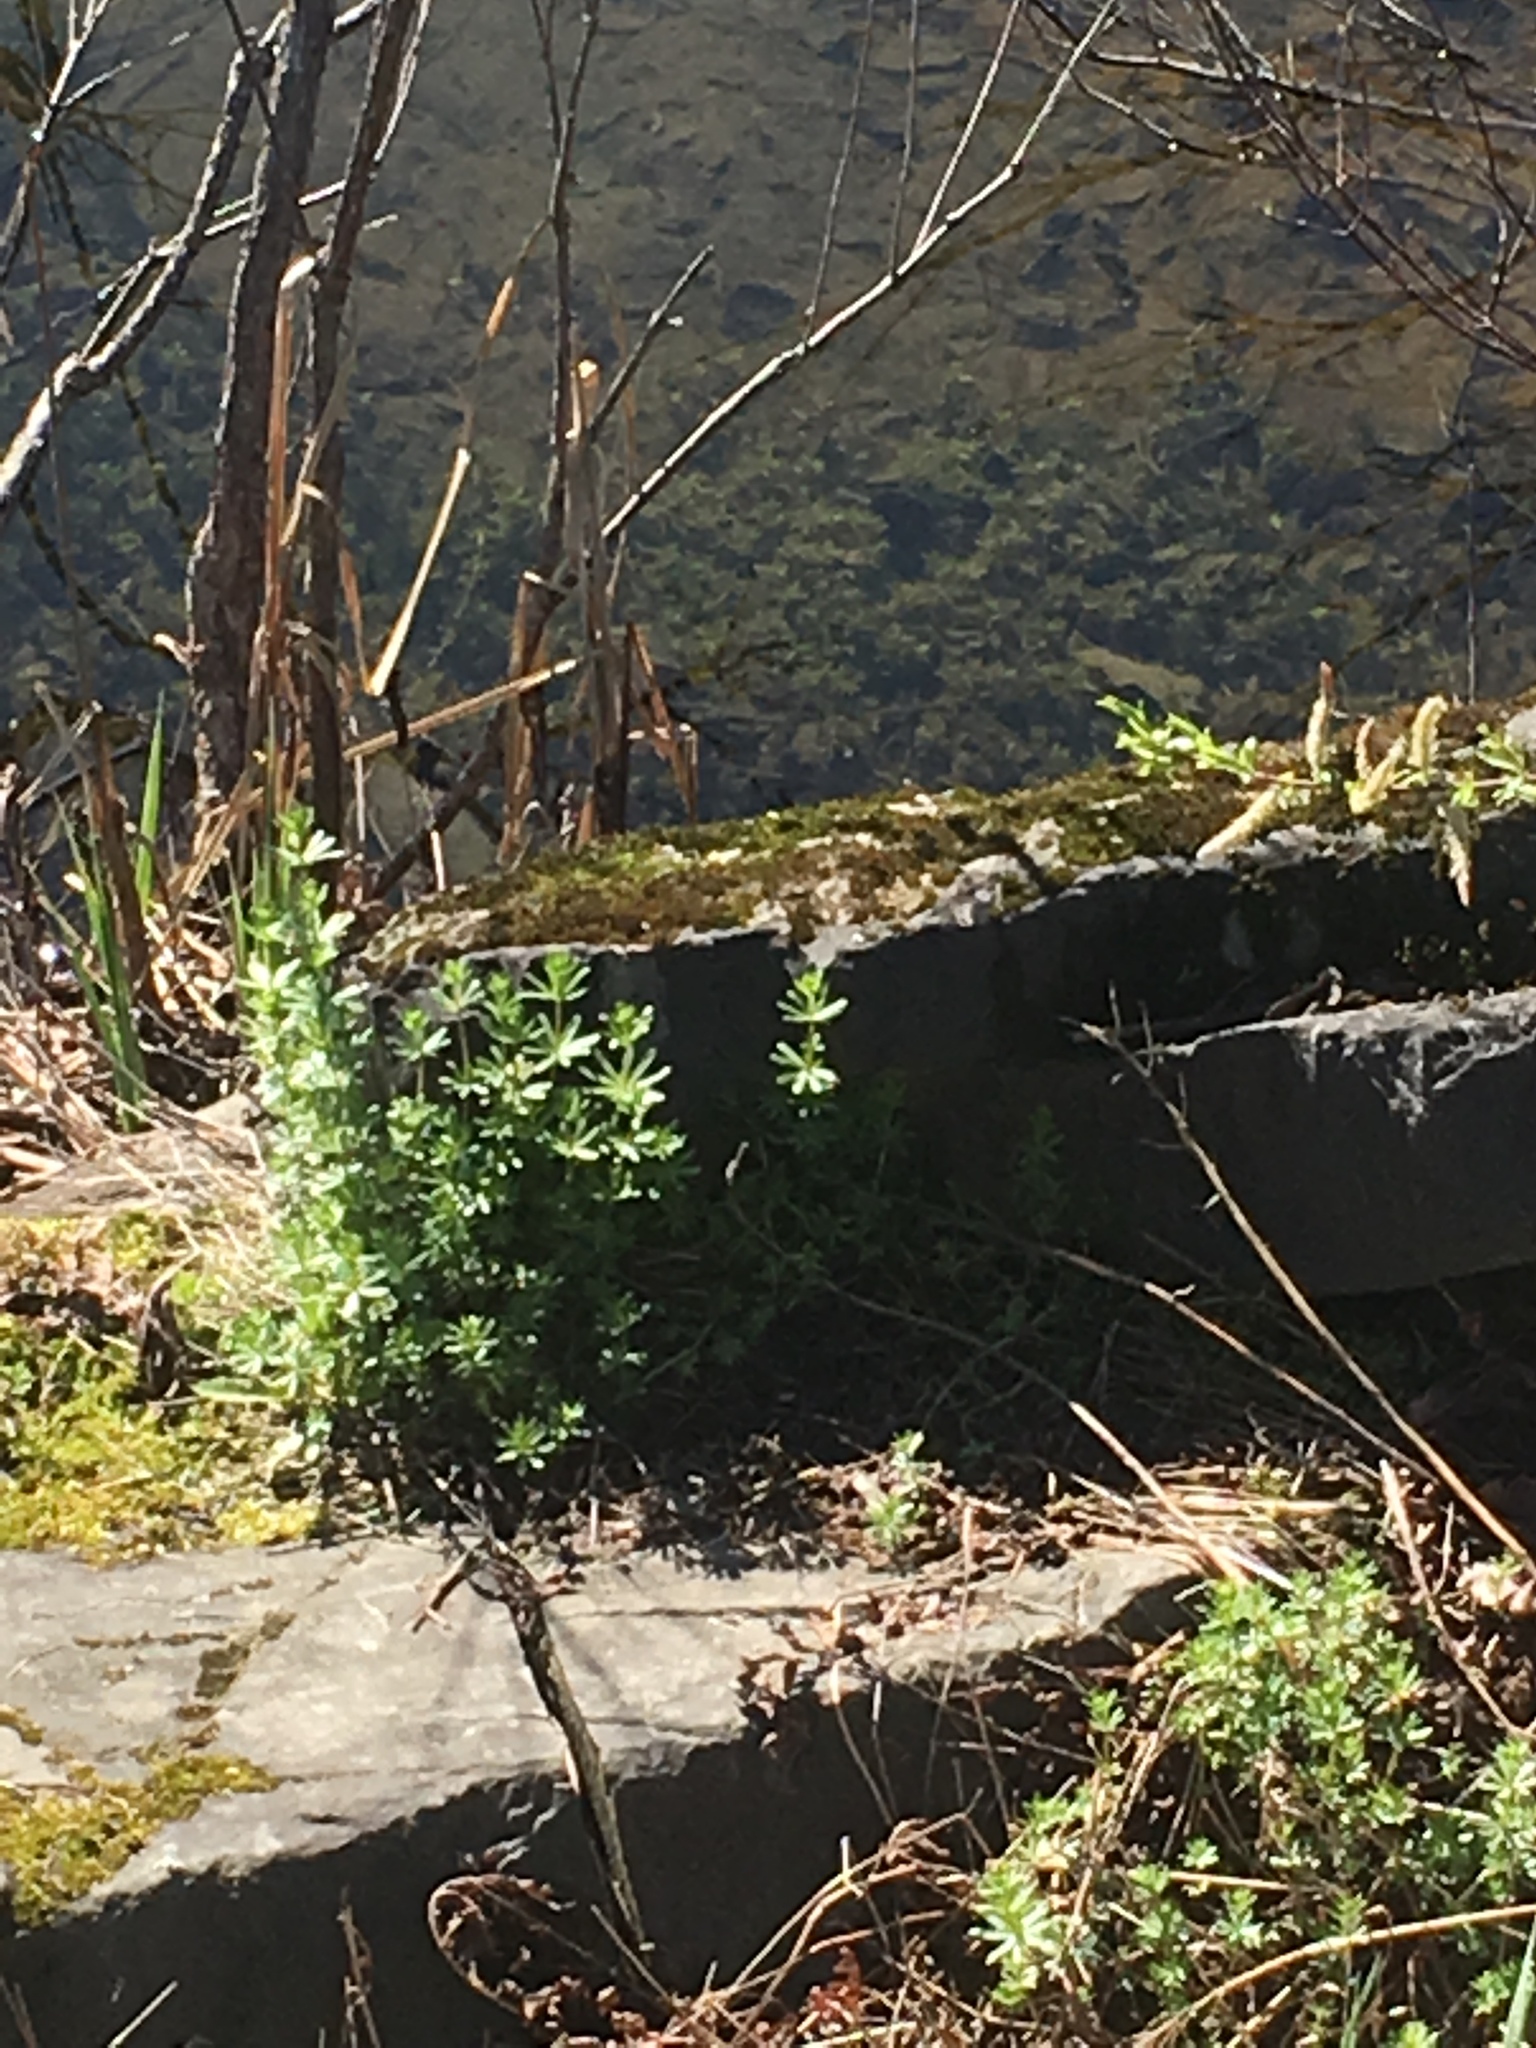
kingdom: Plantae
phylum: Tracheophyta
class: Magnoliopsida
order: Gentianales
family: Rubiaceae
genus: Galium
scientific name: Galium mollugo
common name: Hedge bedstraw
